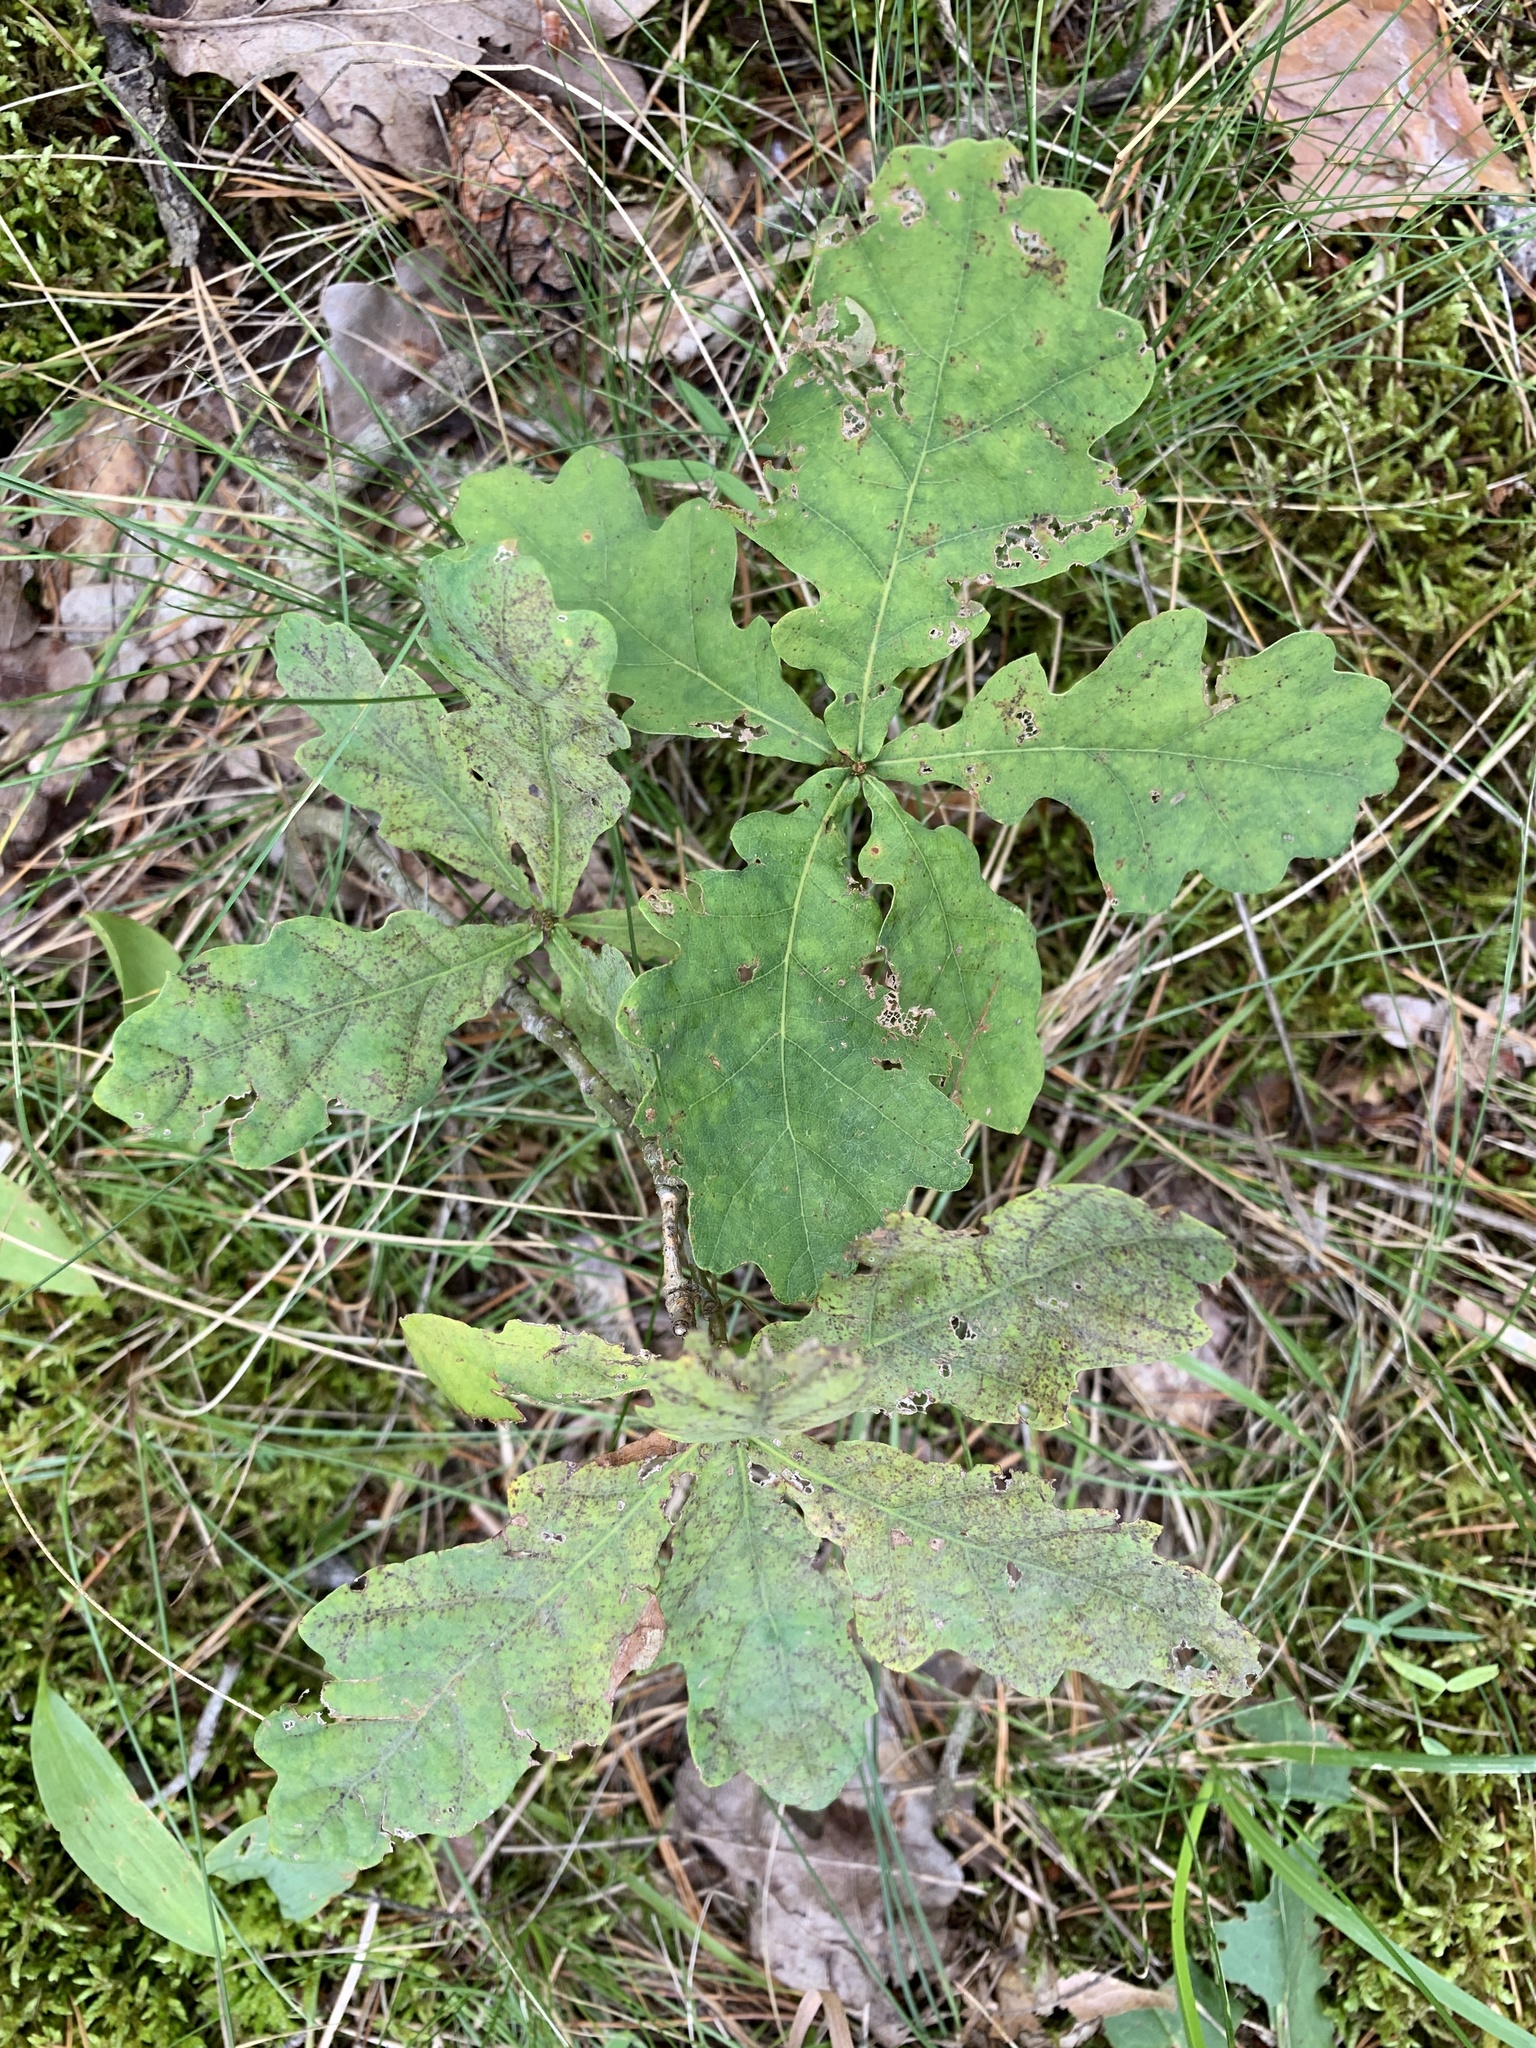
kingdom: Plantae
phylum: Tracheophyta
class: Magnoliopsida
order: Fagales
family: Fagaceae
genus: Quercus
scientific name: Quercus robur
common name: Pedunculate oak
